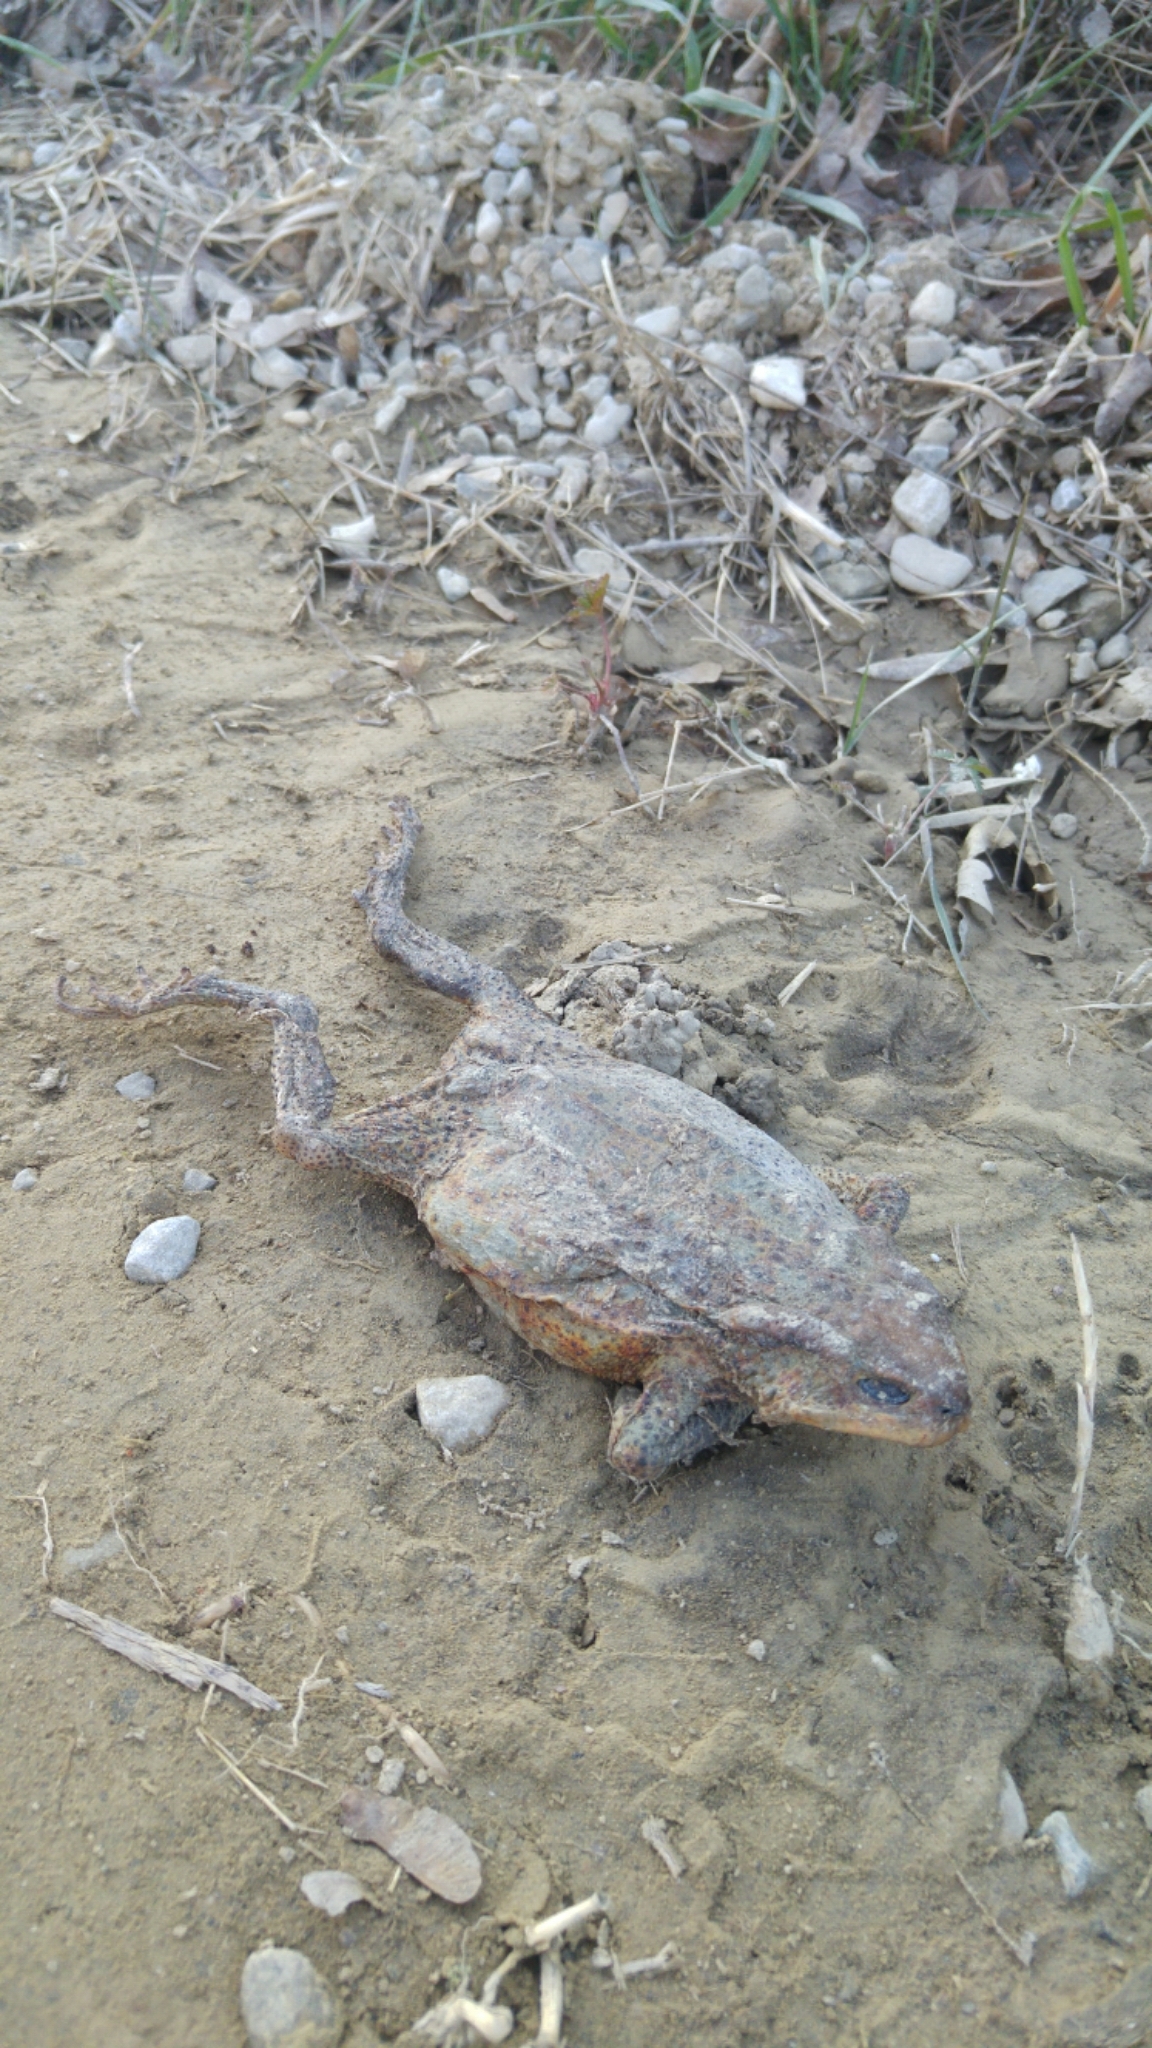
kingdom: Animalia
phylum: Chordata
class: Amphibia
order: Anura
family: Bufonidae
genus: Bufo
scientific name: Bufo bufo
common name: Common toad
